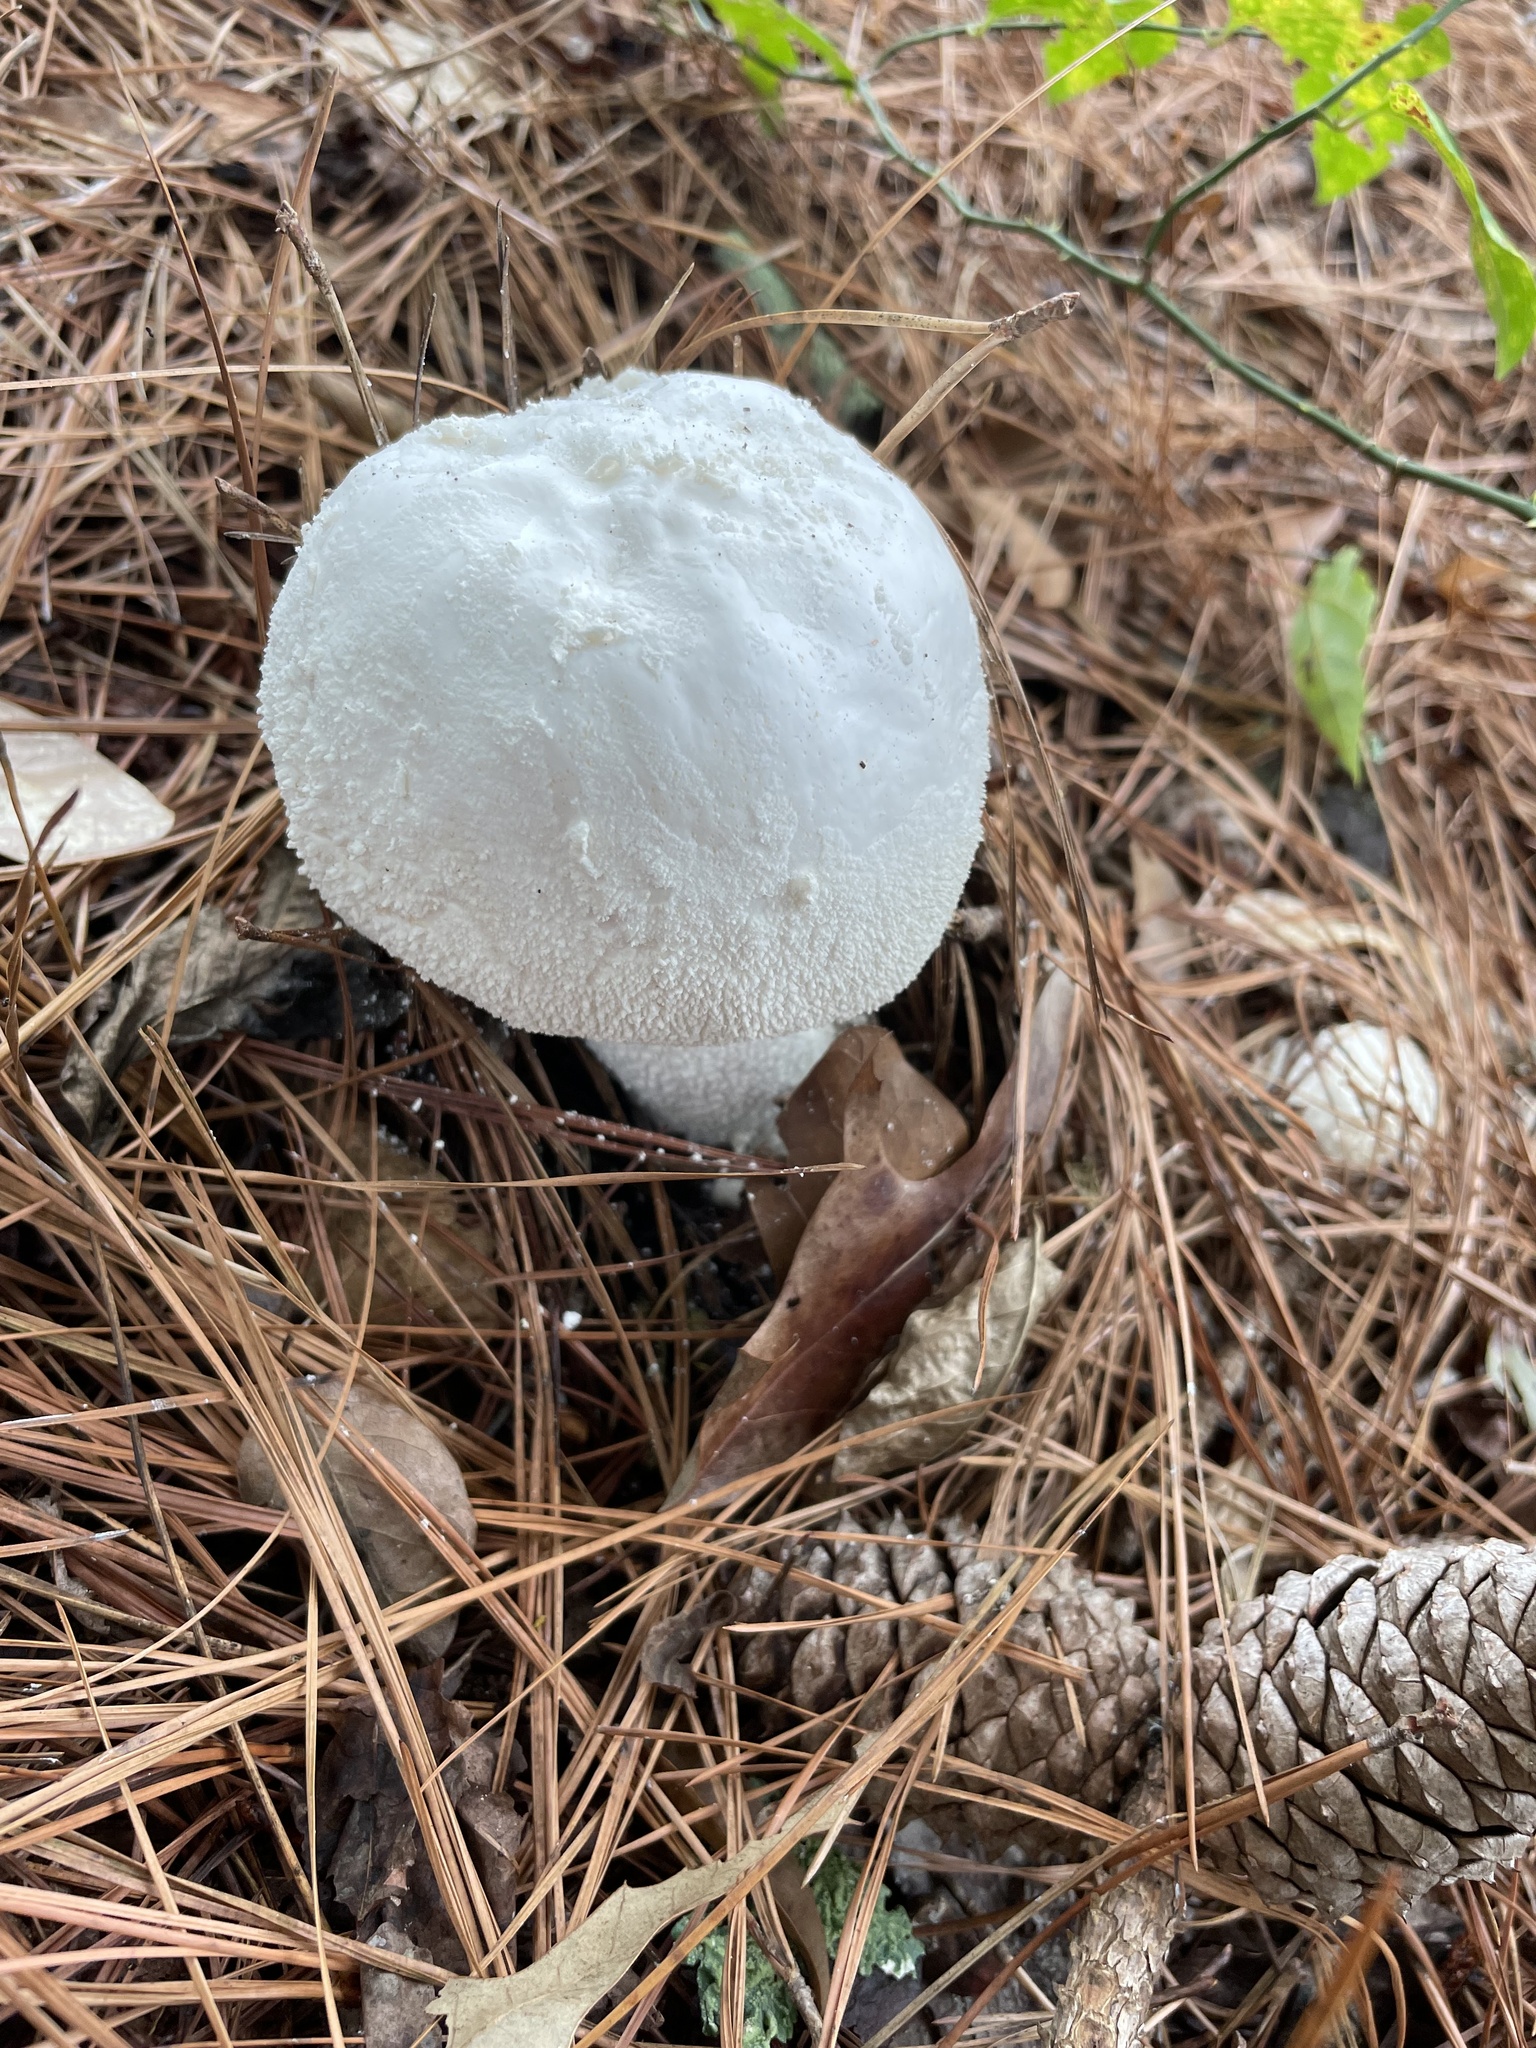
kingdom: Fungi
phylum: Basidiomycota
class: Agaricomycetes
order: Agaricales
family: Amanitaceae
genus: Amanita
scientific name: Amanita polypyramis
